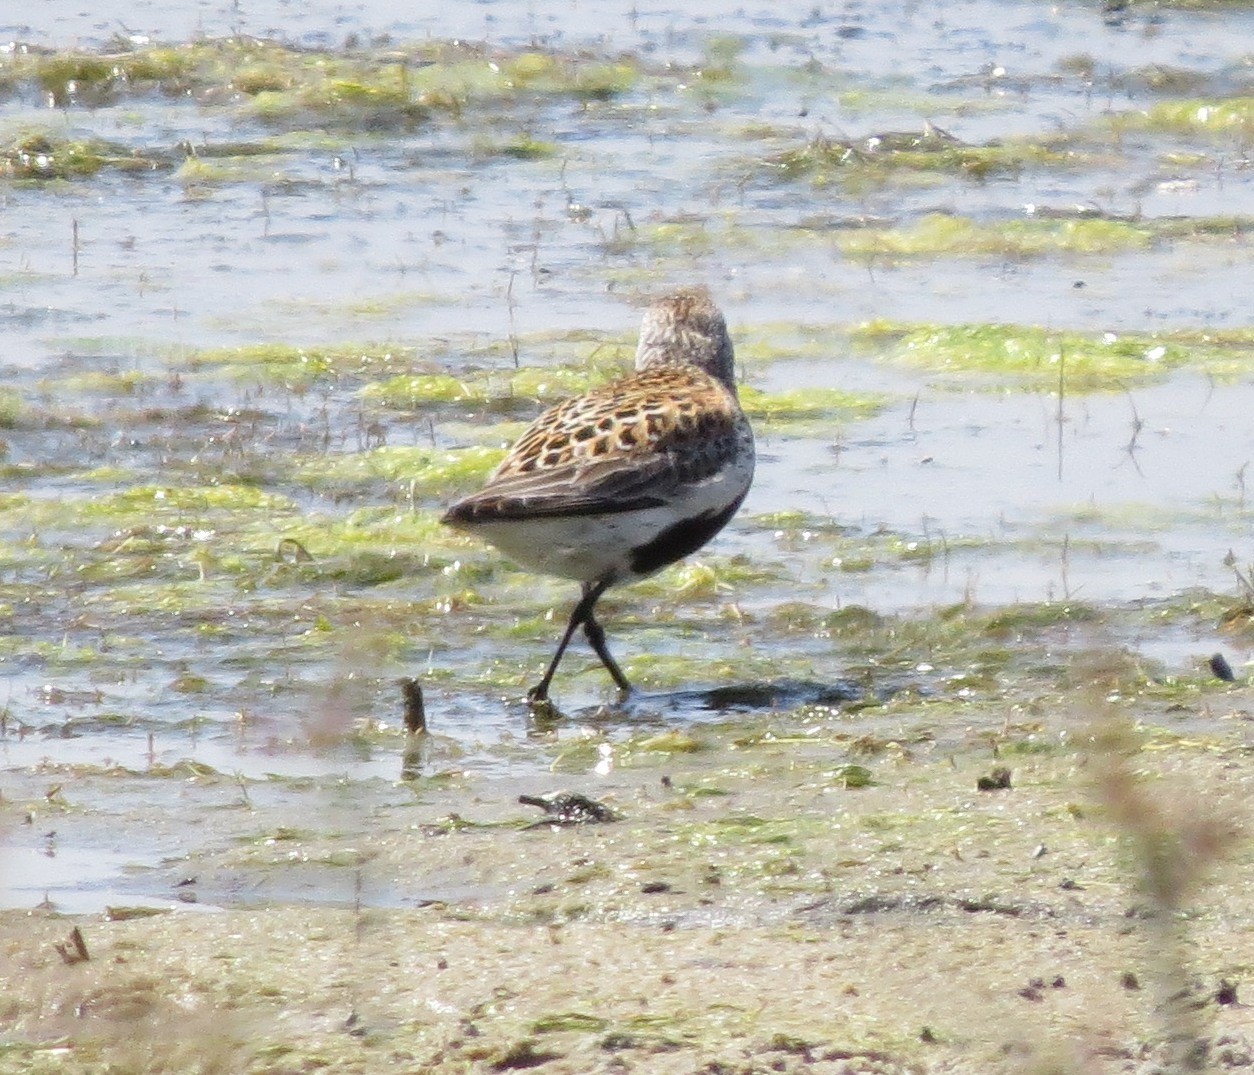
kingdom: Animalia
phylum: Chordata
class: Aves
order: Charadriiformes
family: Scolopacidae
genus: Calidris
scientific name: Calidris alpina
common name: Dunlin
